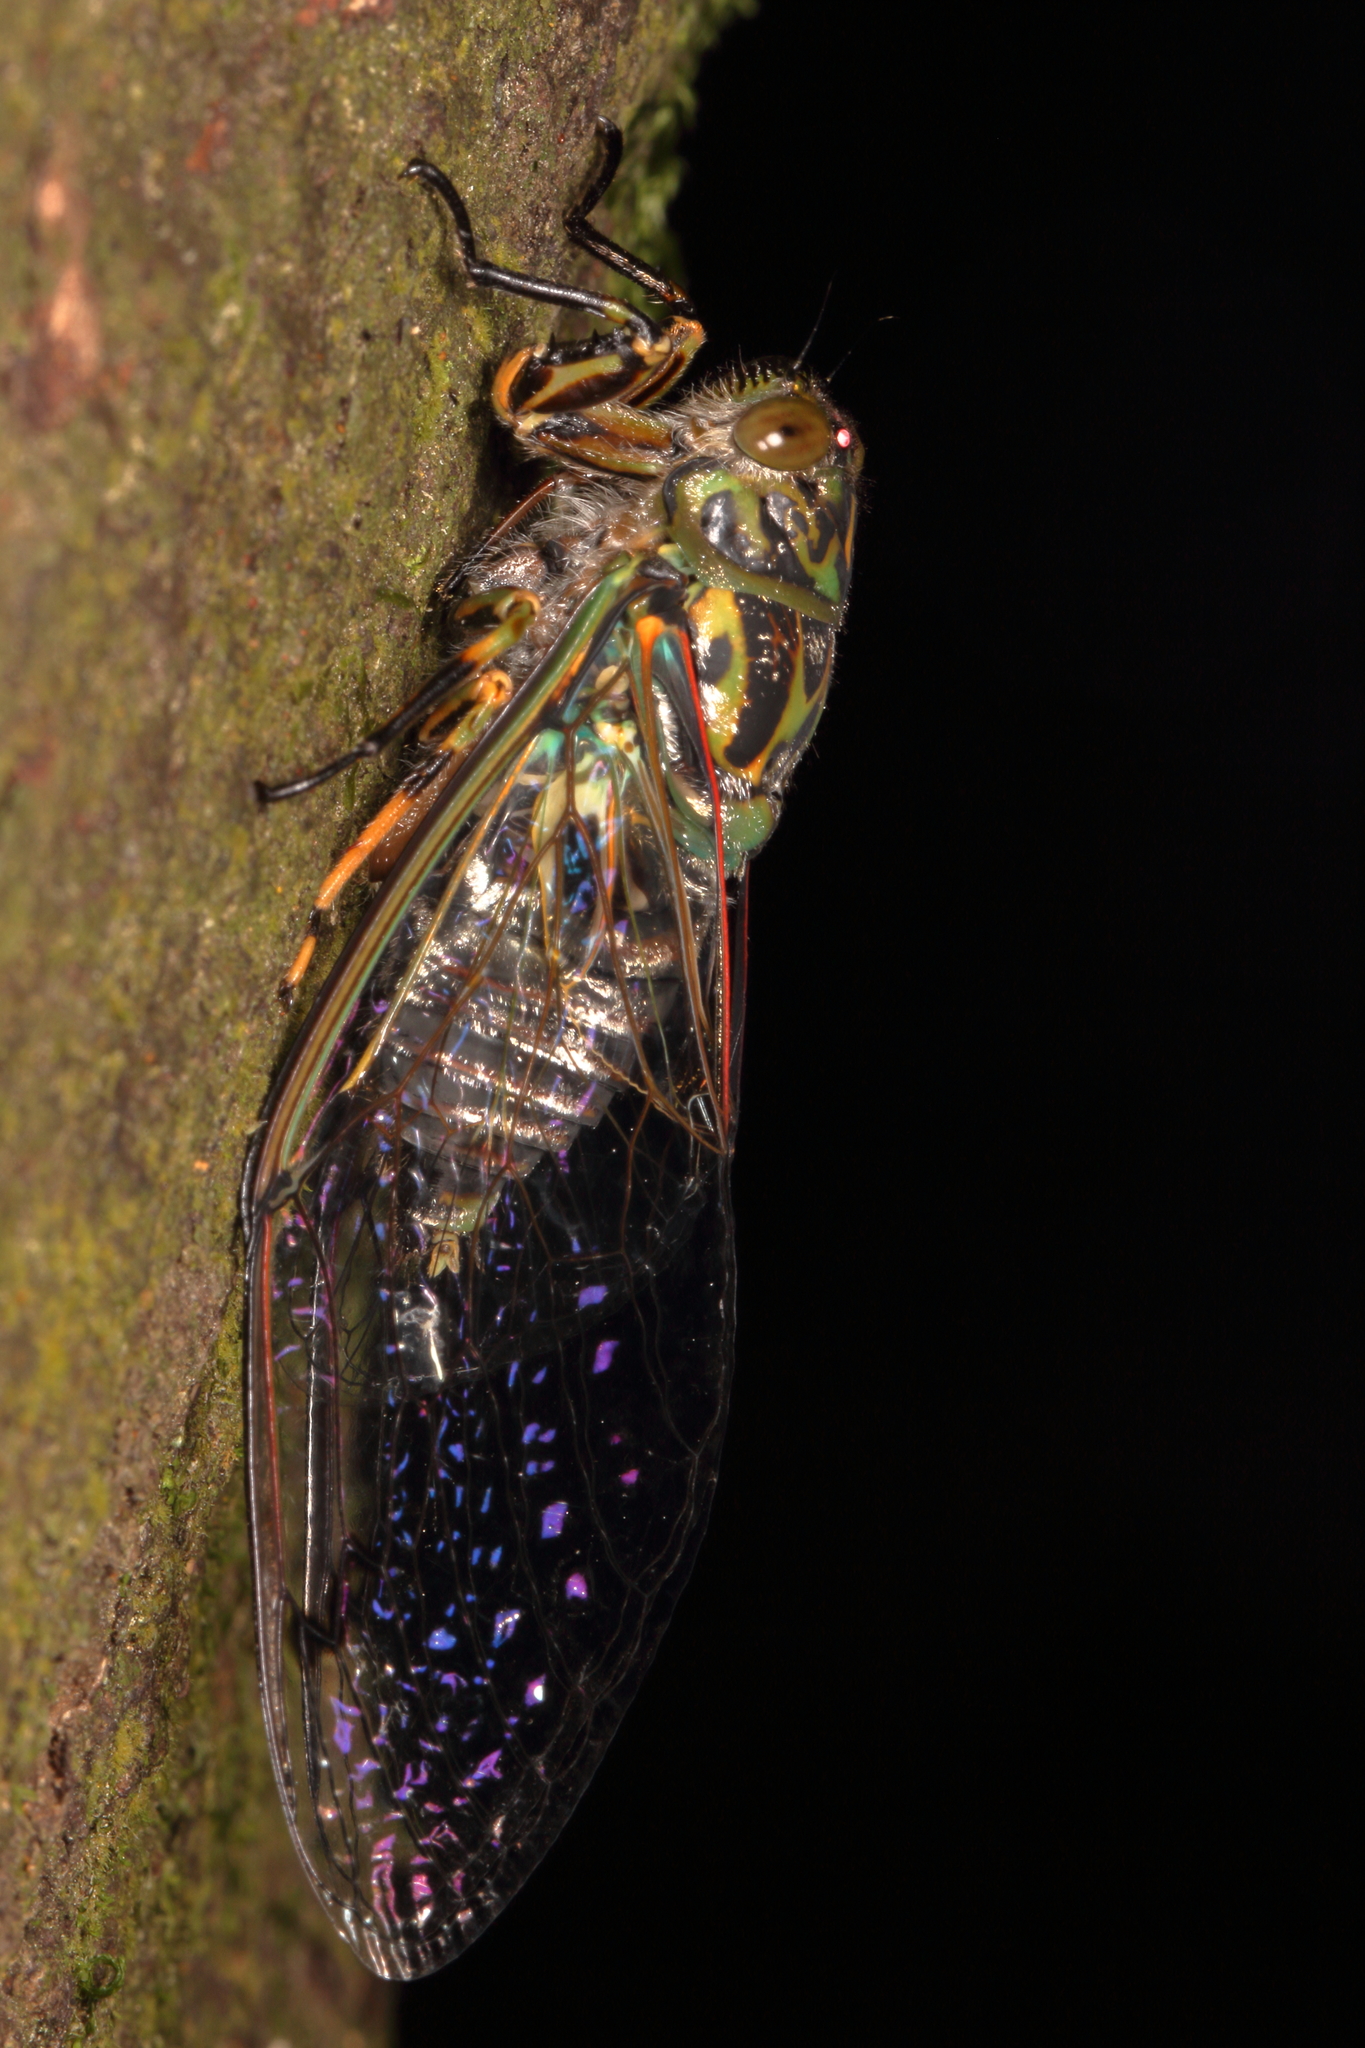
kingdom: Animalia
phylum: Arthropoda
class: Insecta
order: Hemiptera
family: Cicadidae
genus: Amphipsalta
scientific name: Amphipsalta zelandica
